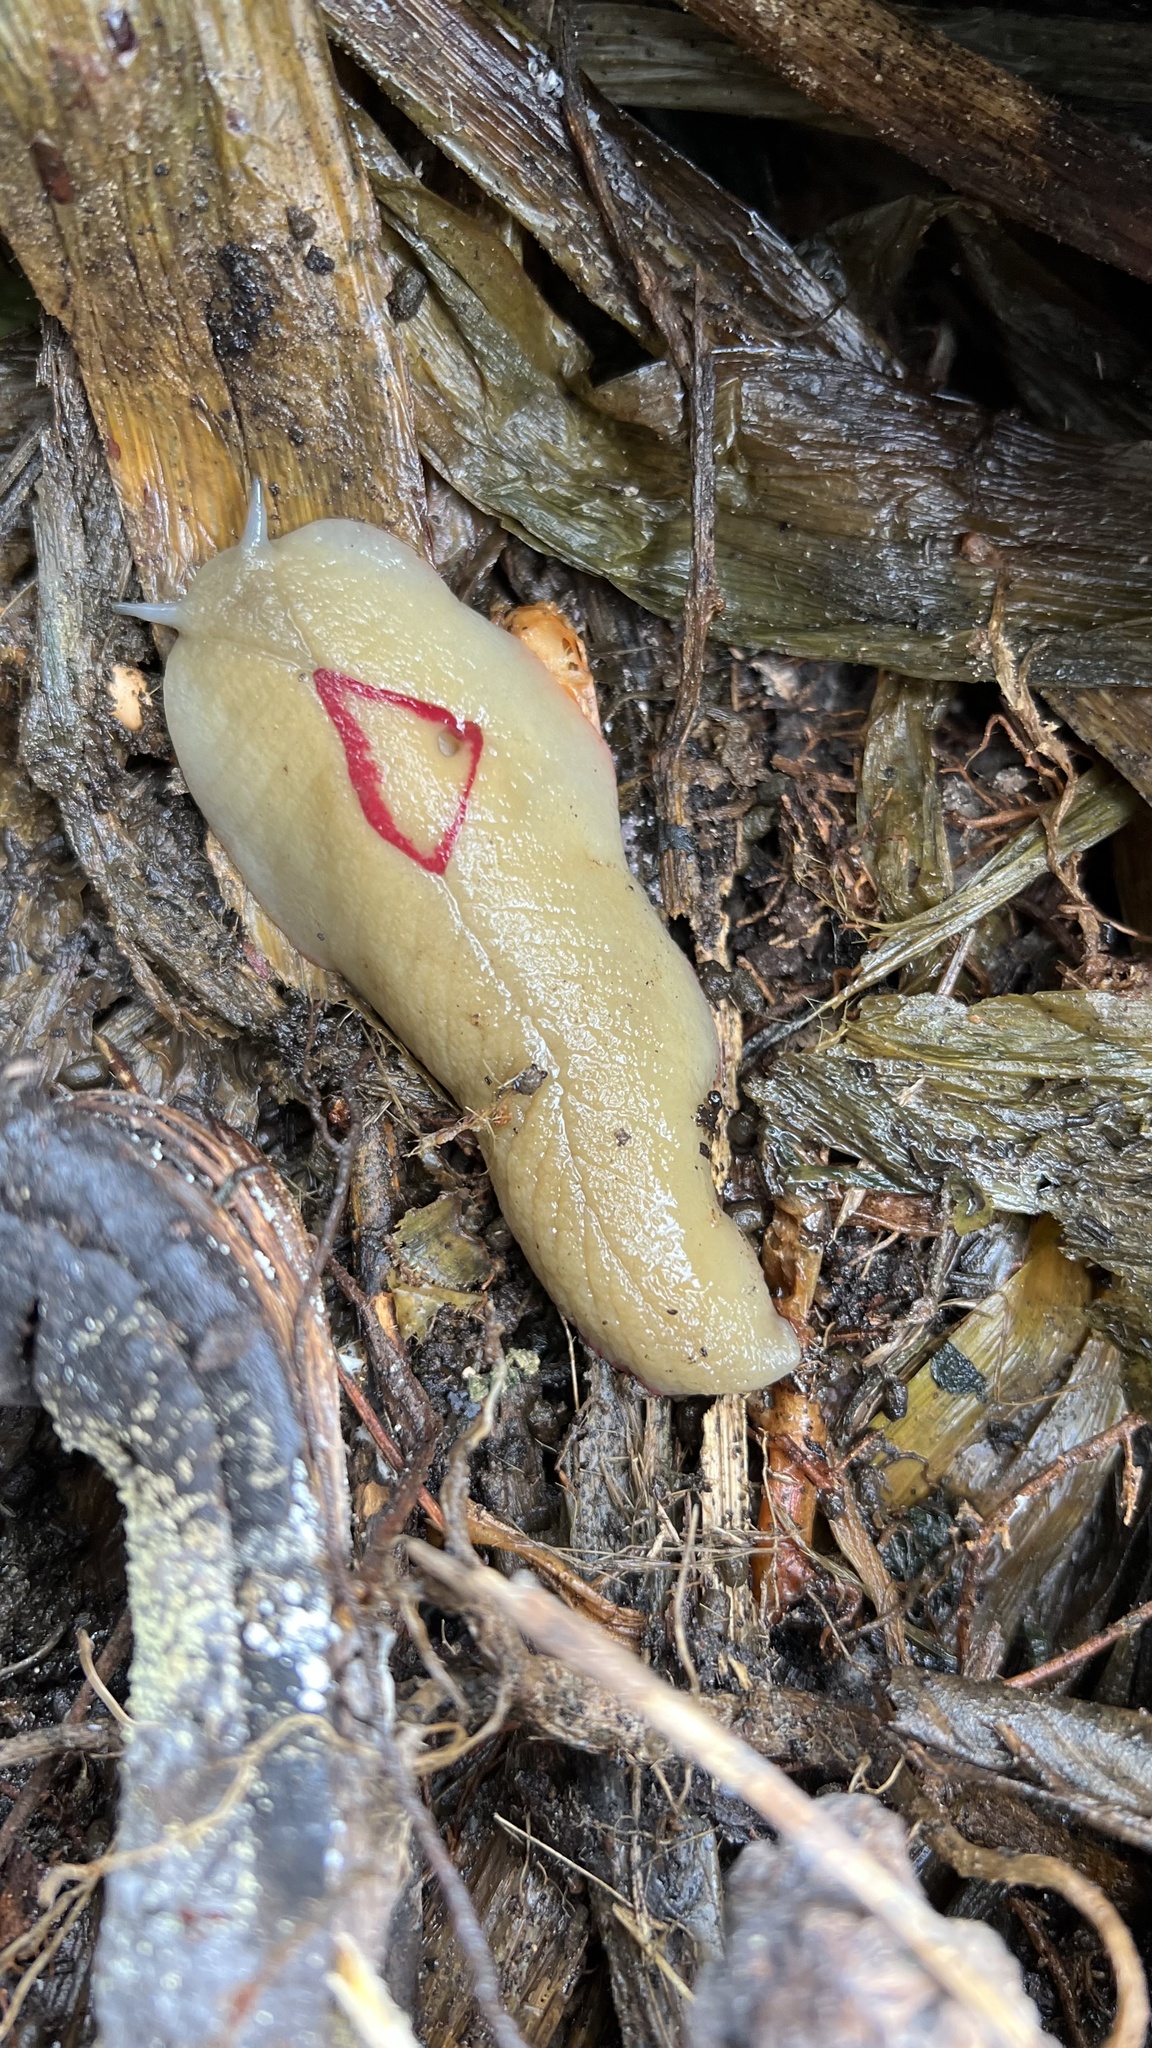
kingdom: Animalia
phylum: Mollusca
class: Gastropoda
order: Stylommatophora
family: Athoracophoridae
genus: Triboniophorus
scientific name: Triboniophorus graeffei
